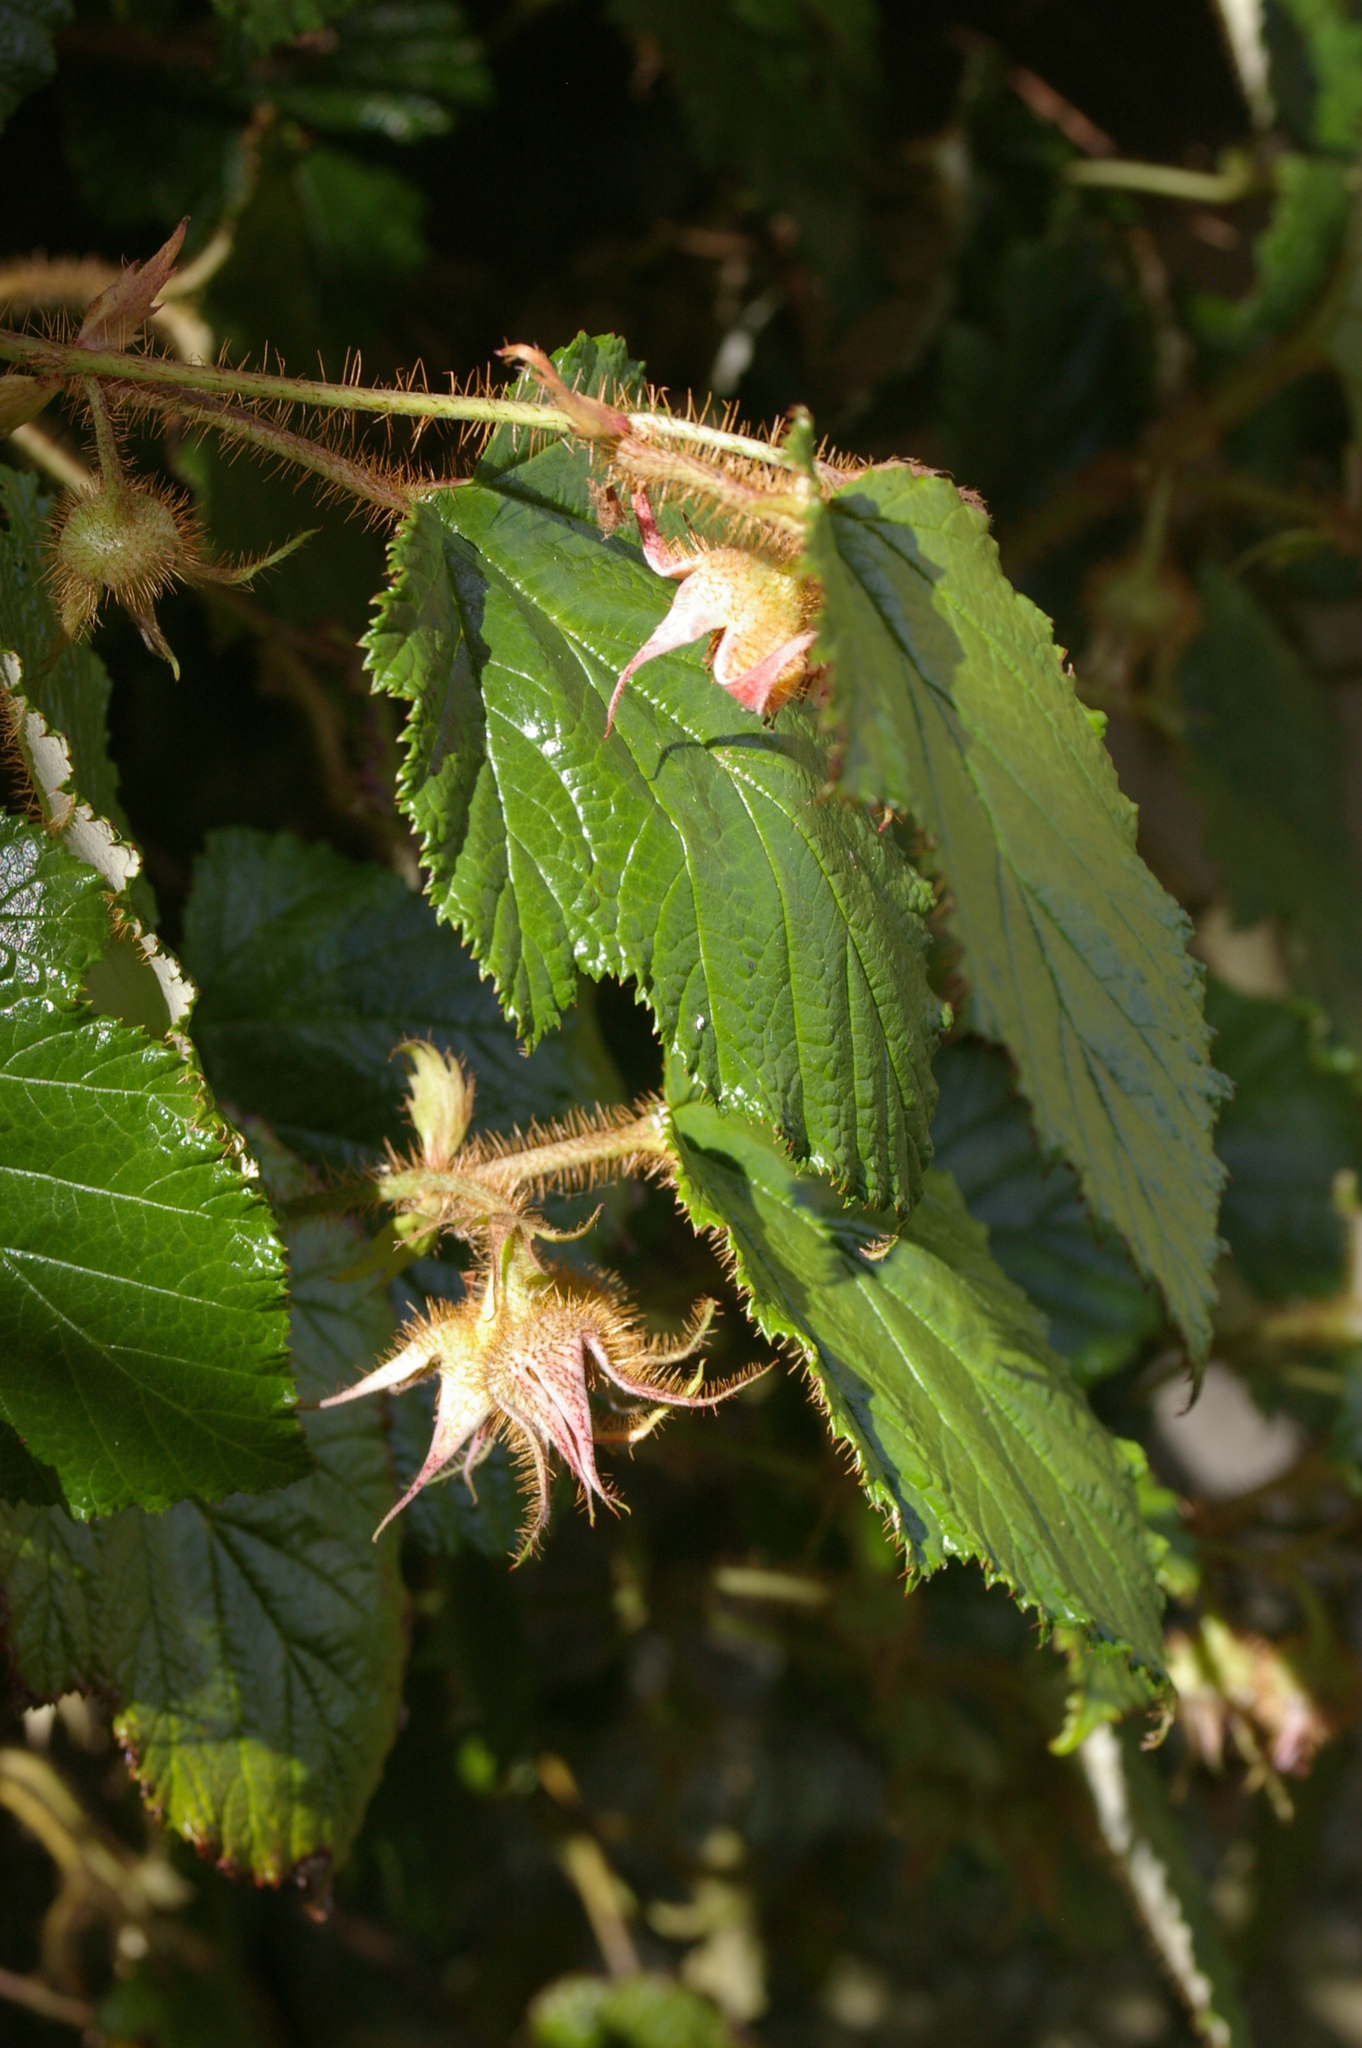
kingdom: Plantae
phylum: Tracheophyta
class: Magnoliopsida
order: Rosales
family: Rosaceae
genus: Rubus
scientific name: Rubus tricolor
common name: Chinese bramble
